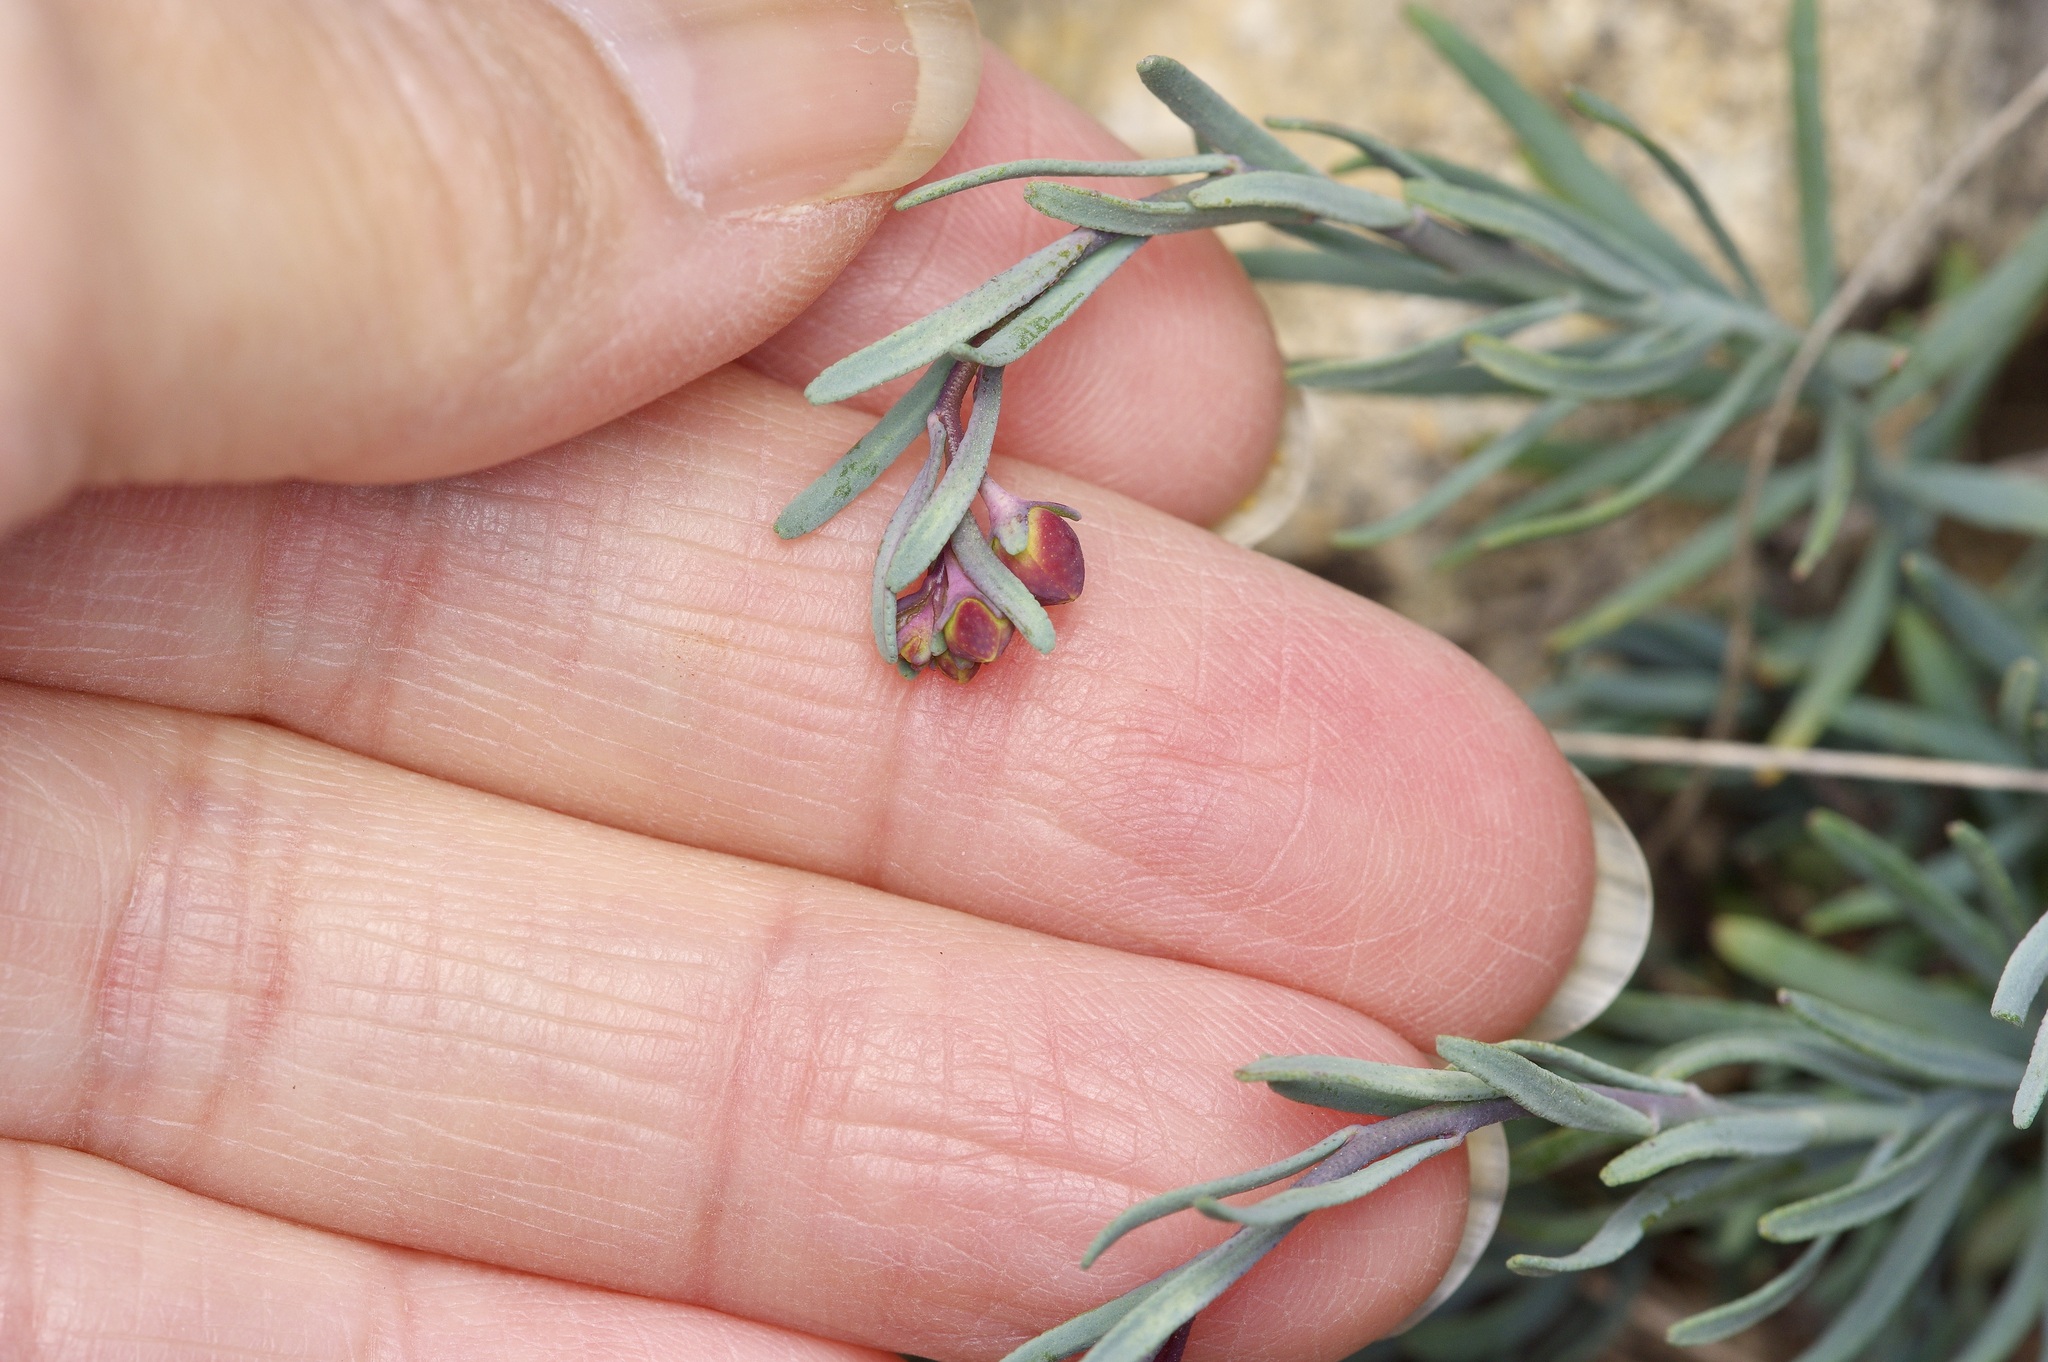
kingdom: Plantae
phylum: Tracheophyta
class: Magnoliopsida
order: Sapindales
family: Rutaceae
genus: Thamnosma
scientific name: Thamnosma texana
